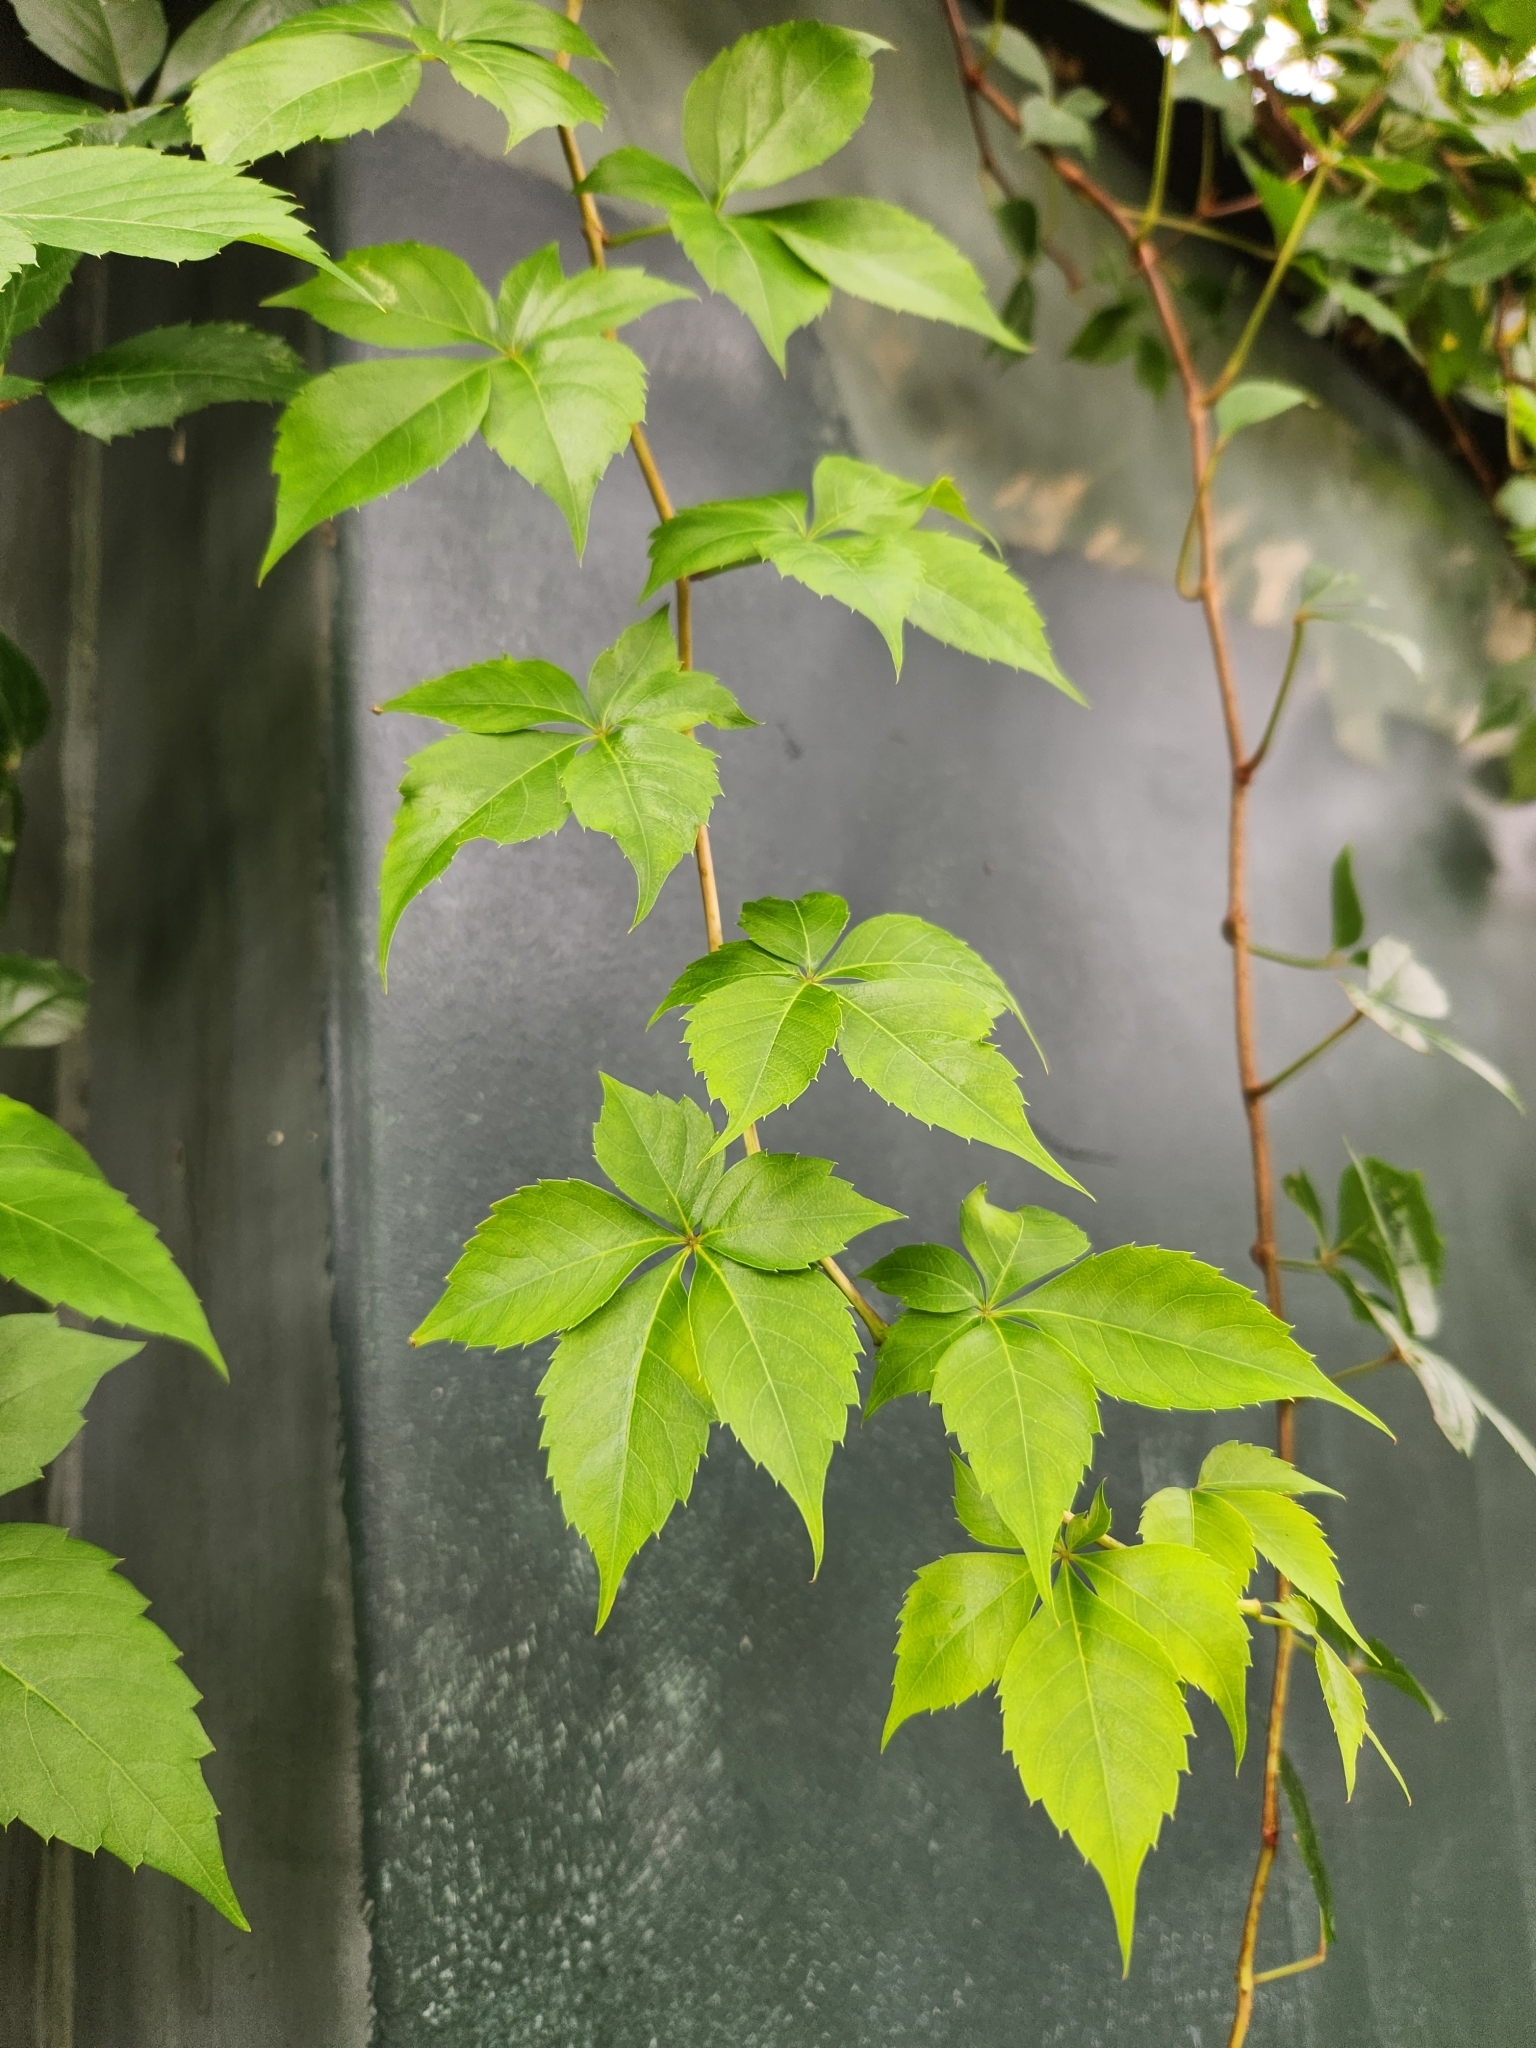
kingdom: Plantae
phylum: Tracheophyta
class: Magnoliopsida
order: Vitales
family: Vitaceae
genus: Parthenocissus
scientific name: Parthenocissus quinquefolia
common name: Virginia-creeper
